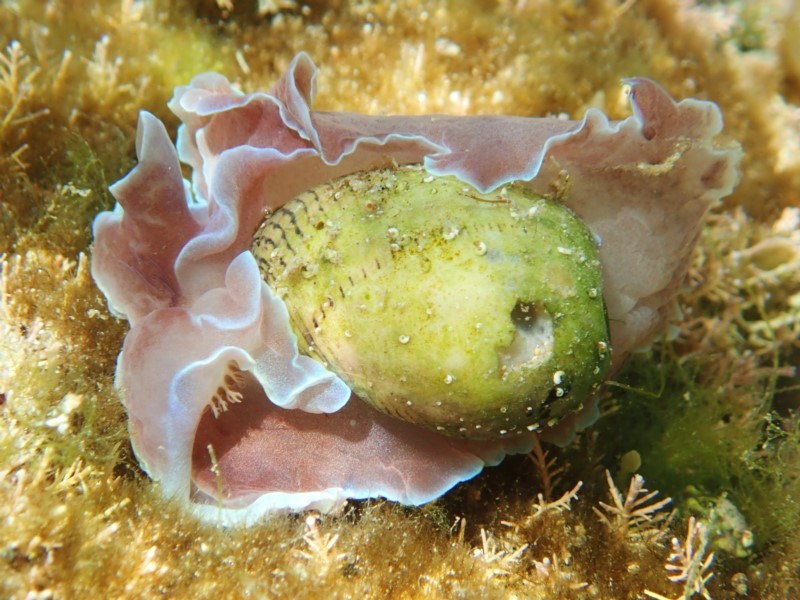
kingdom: Animalia
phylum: Mollusca
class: Gastropoda
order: Cephalaspidea
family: Aplustridae
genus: Hydatina
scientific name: Hydatina physis
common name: Brown-line paperbubble
